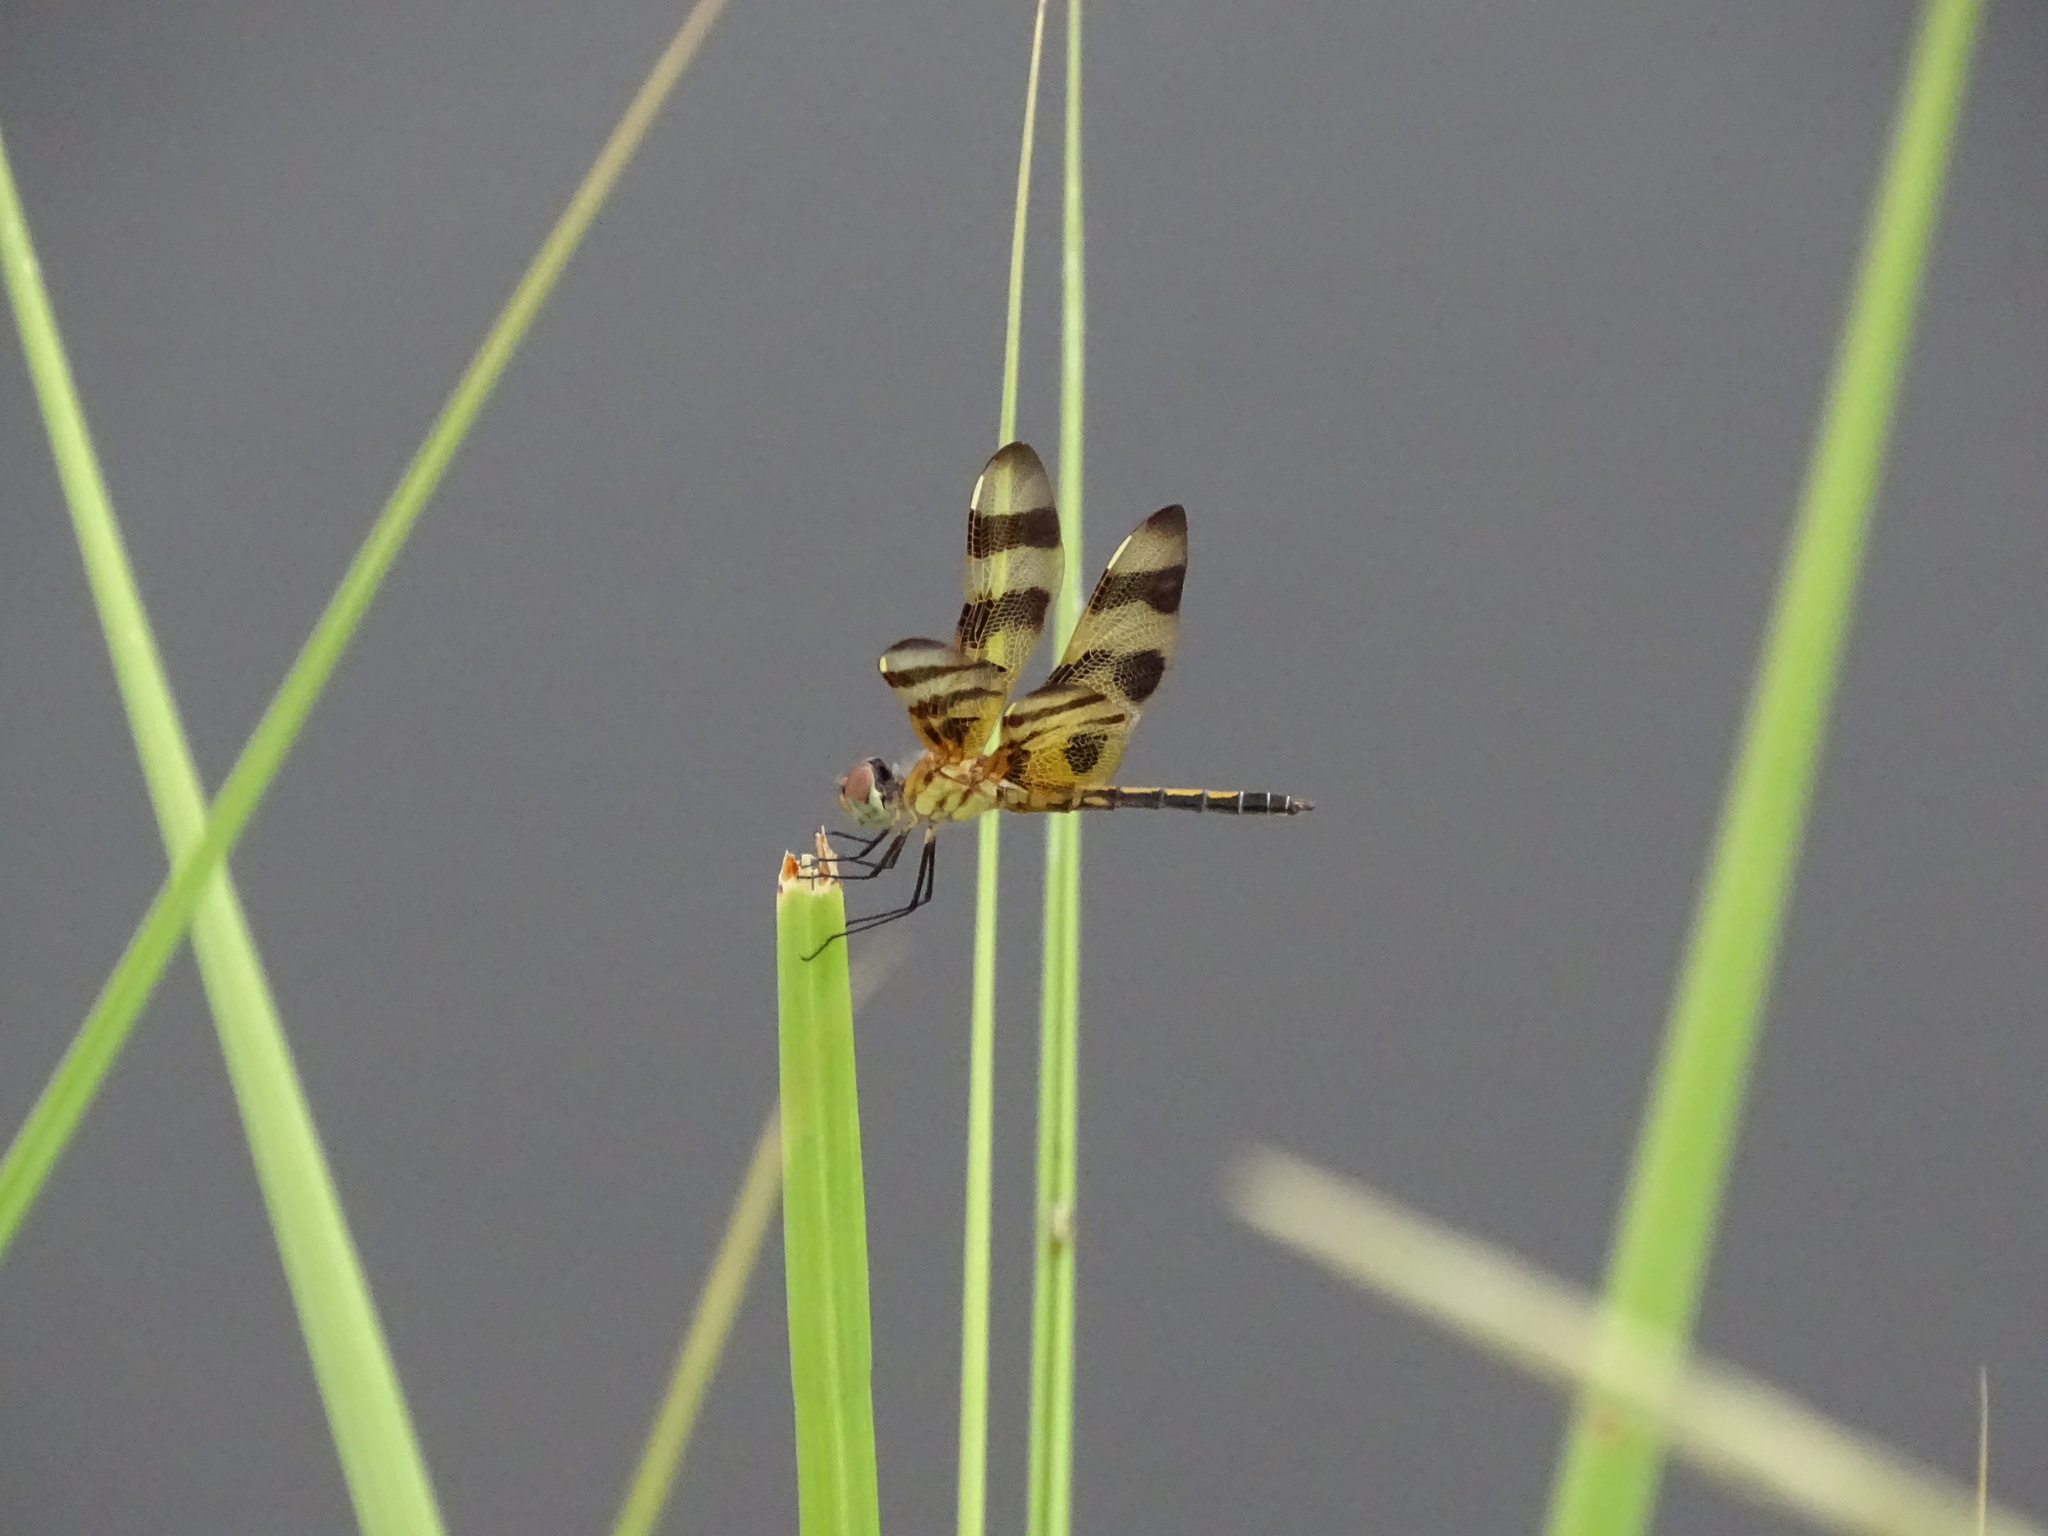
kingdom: Animalia
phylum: Arthropoda
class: Insecta
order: Odonata
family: Libellulidae
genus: Celithemis
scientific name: Celithemis eponina
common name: Halloween pennant
